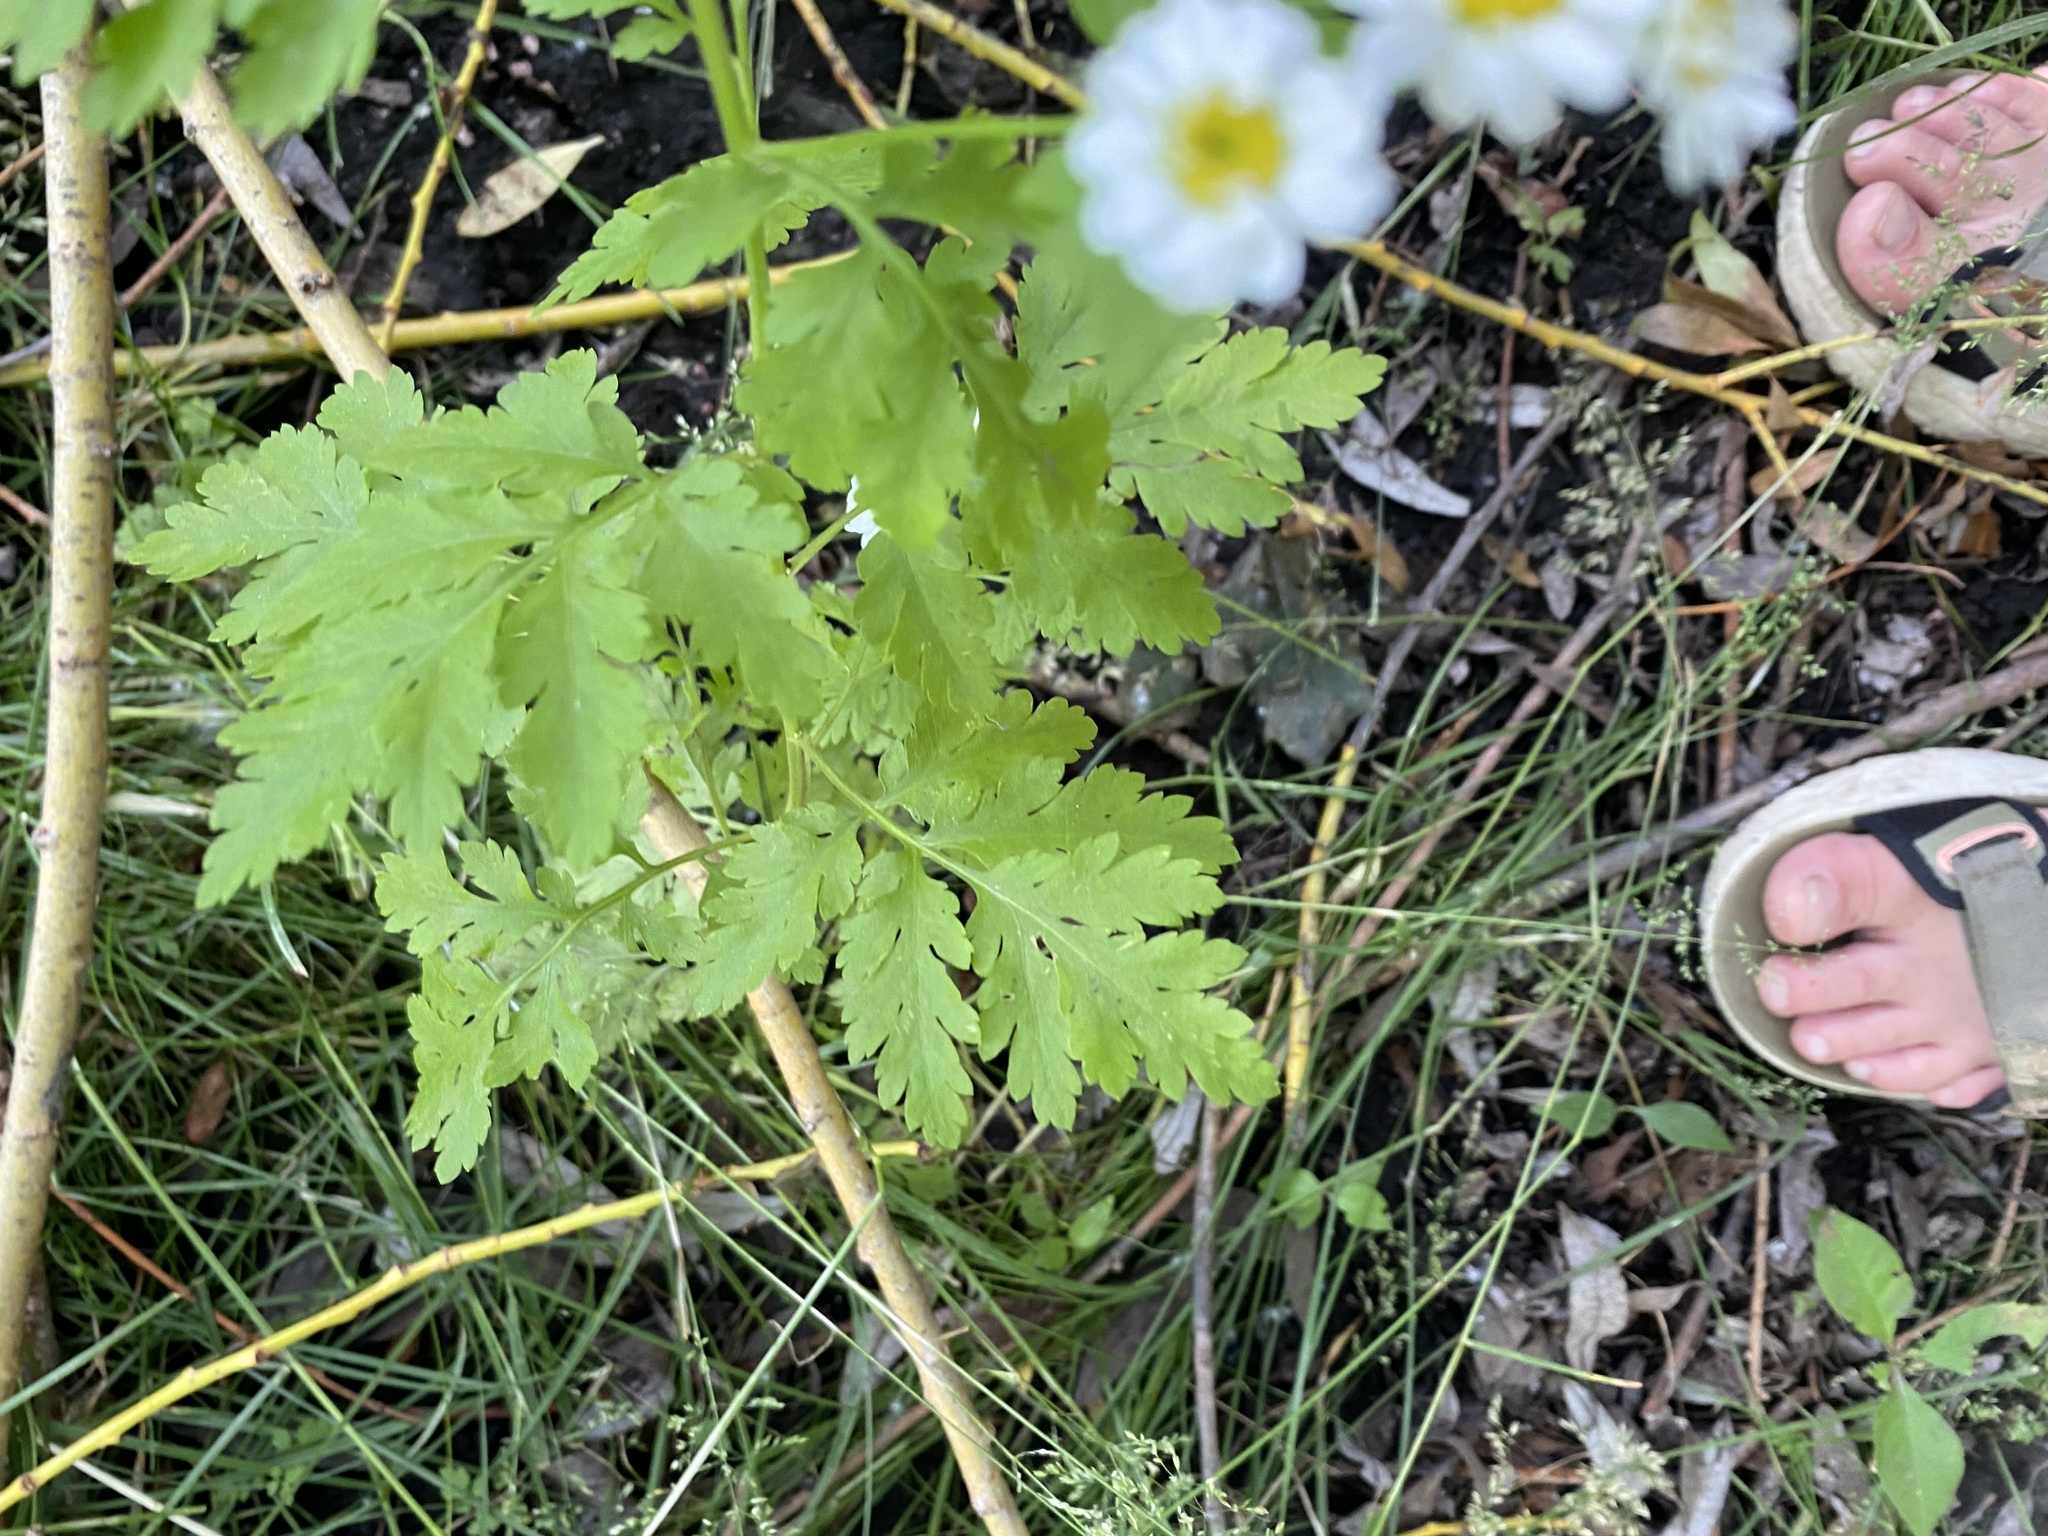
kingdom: Plantae
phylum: Tracheophyta
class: Magnoliopsida
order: Asterales
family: Asteraceae
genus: Tanacetum
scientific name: Tanacetum parthenium
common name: Feverfew
